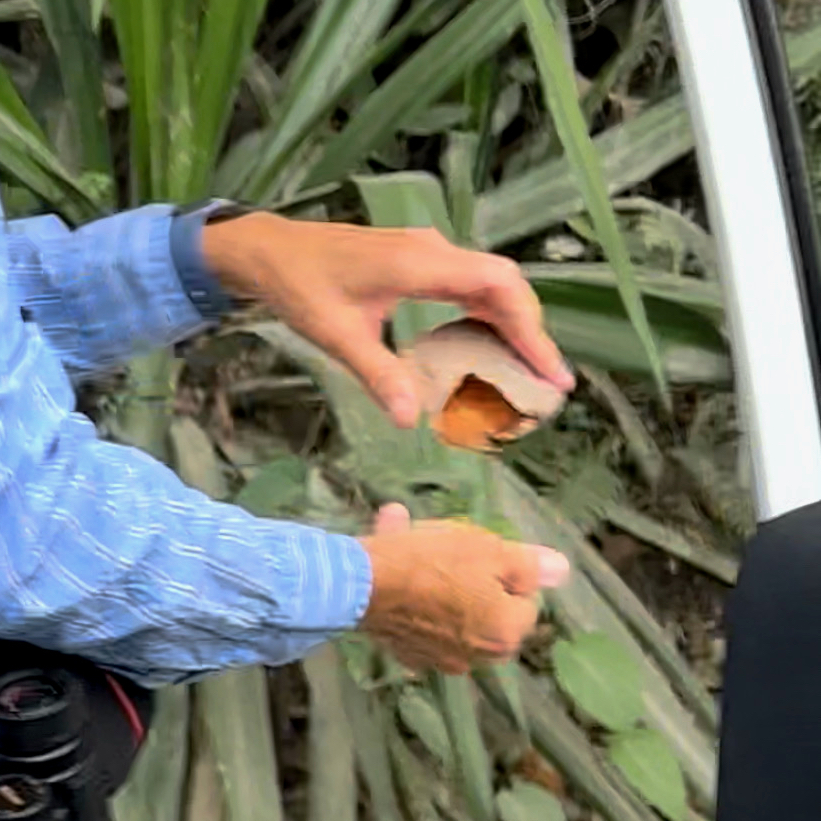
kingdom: Plantae
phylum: Tracheophyta
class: Magnoliopsida
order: Fabales
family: Fabaceae
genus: Entada
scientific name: Entada phaseoloides
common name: Matchbox-bean
